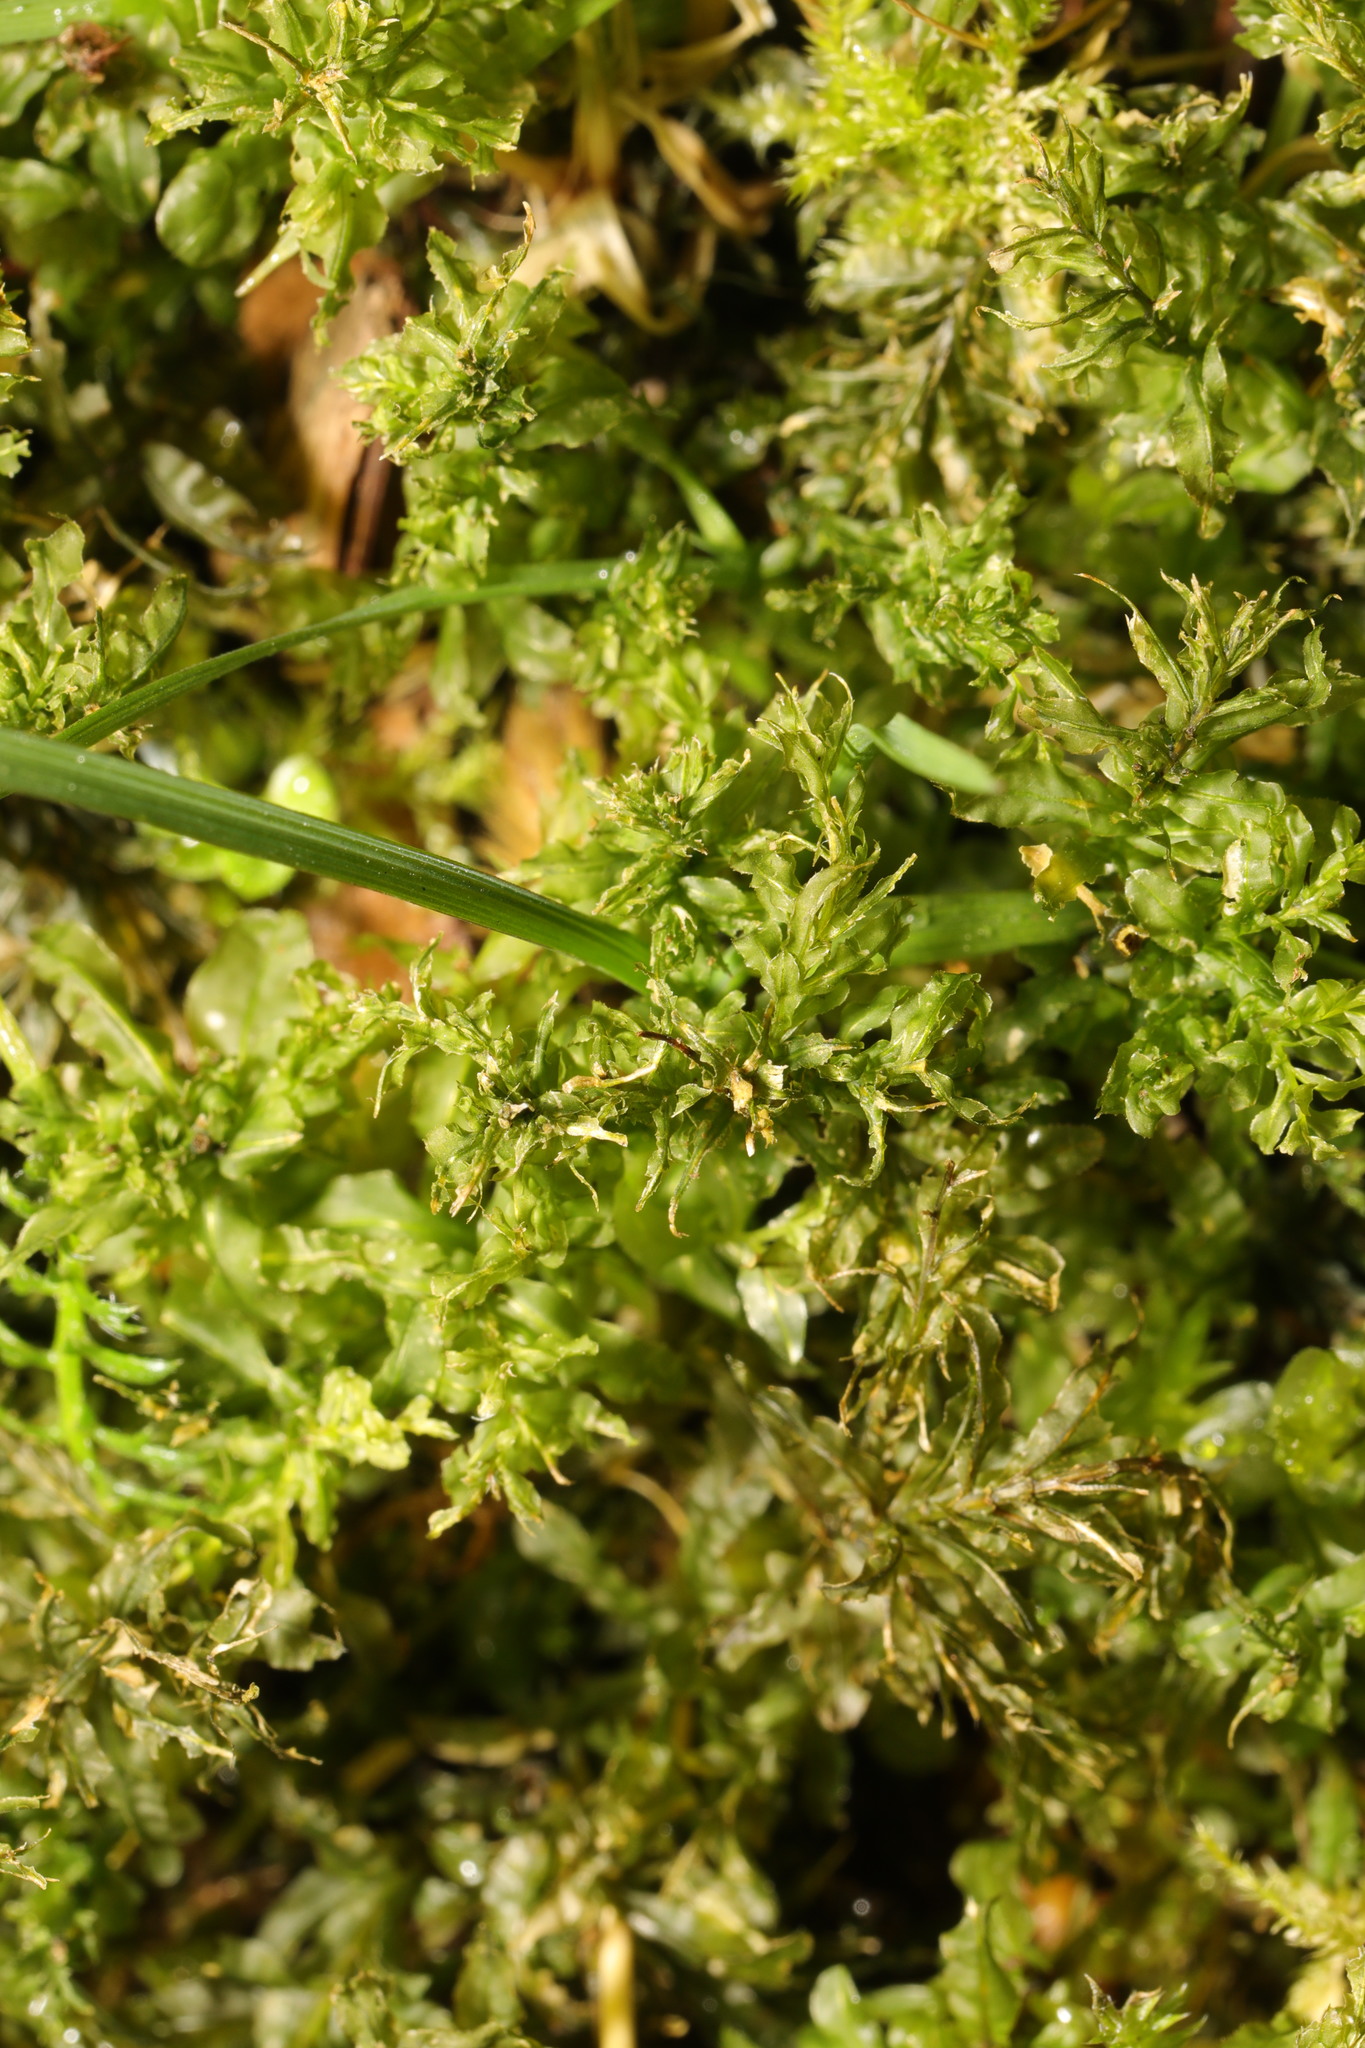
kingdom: Plantae
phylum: Bryophyta
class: Bryopsida
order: Bryales
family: Mniaceae
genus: Plagiomnium
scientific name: Plagiomnium undulatum
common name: Hart's-tongue thyme-moss
